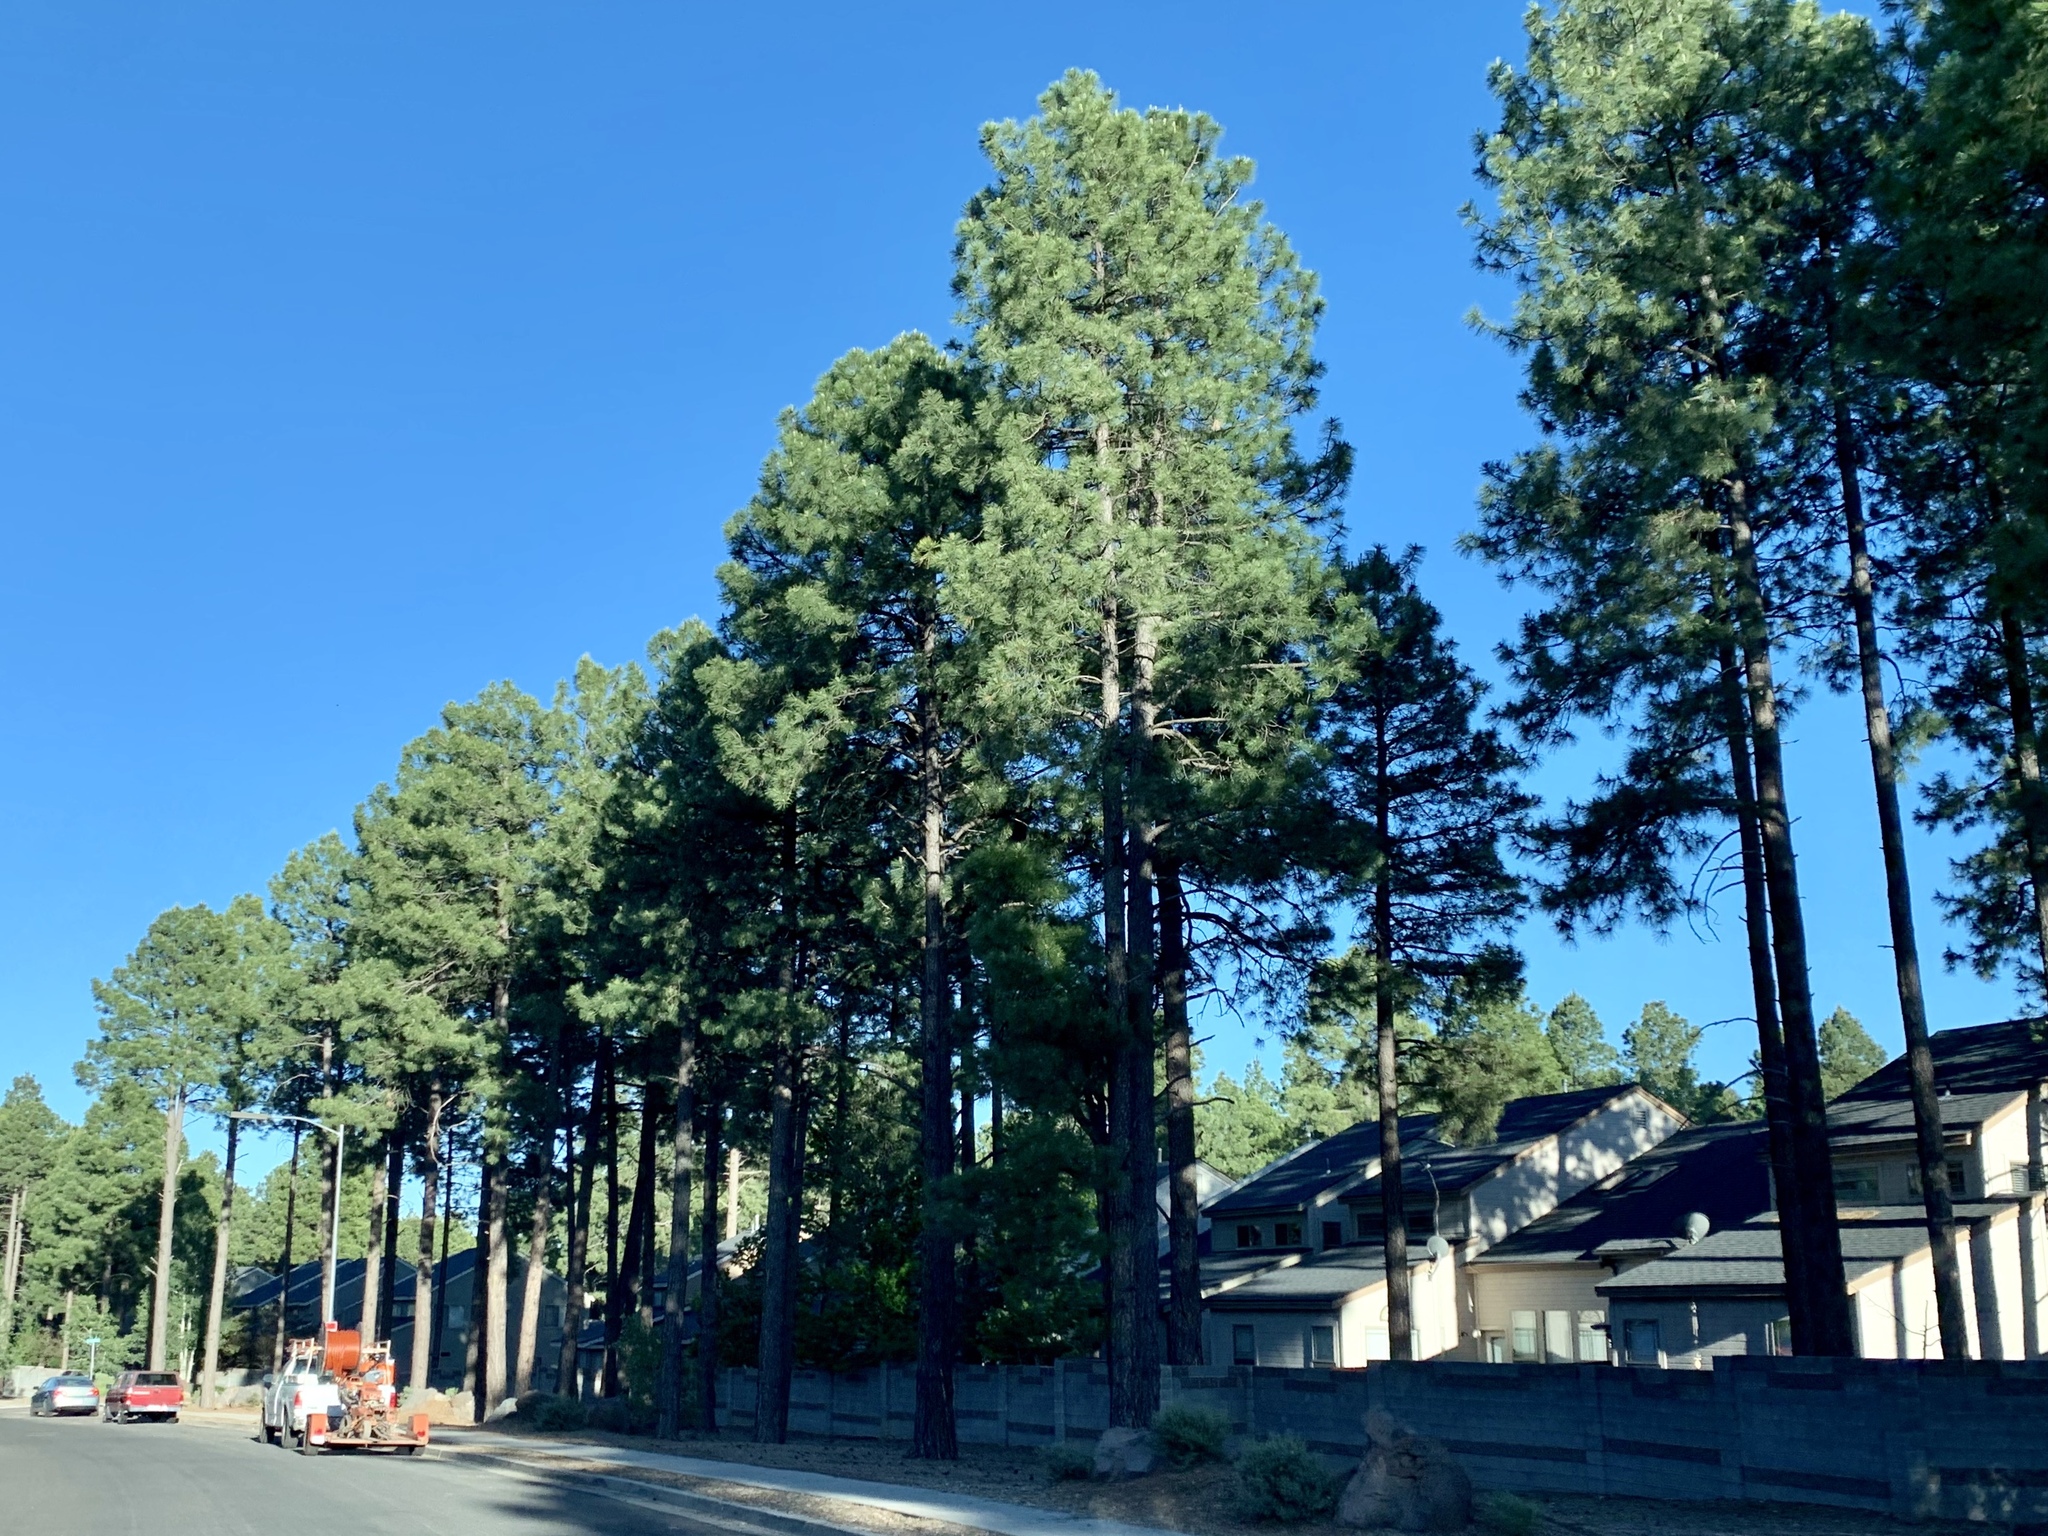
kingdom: Plantae
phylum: Tracheophyta
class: Pinopsida
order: Pinales
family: Pinaceae
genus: Pinus
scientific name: Pinus ponderosa
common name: Western yellow-pine
